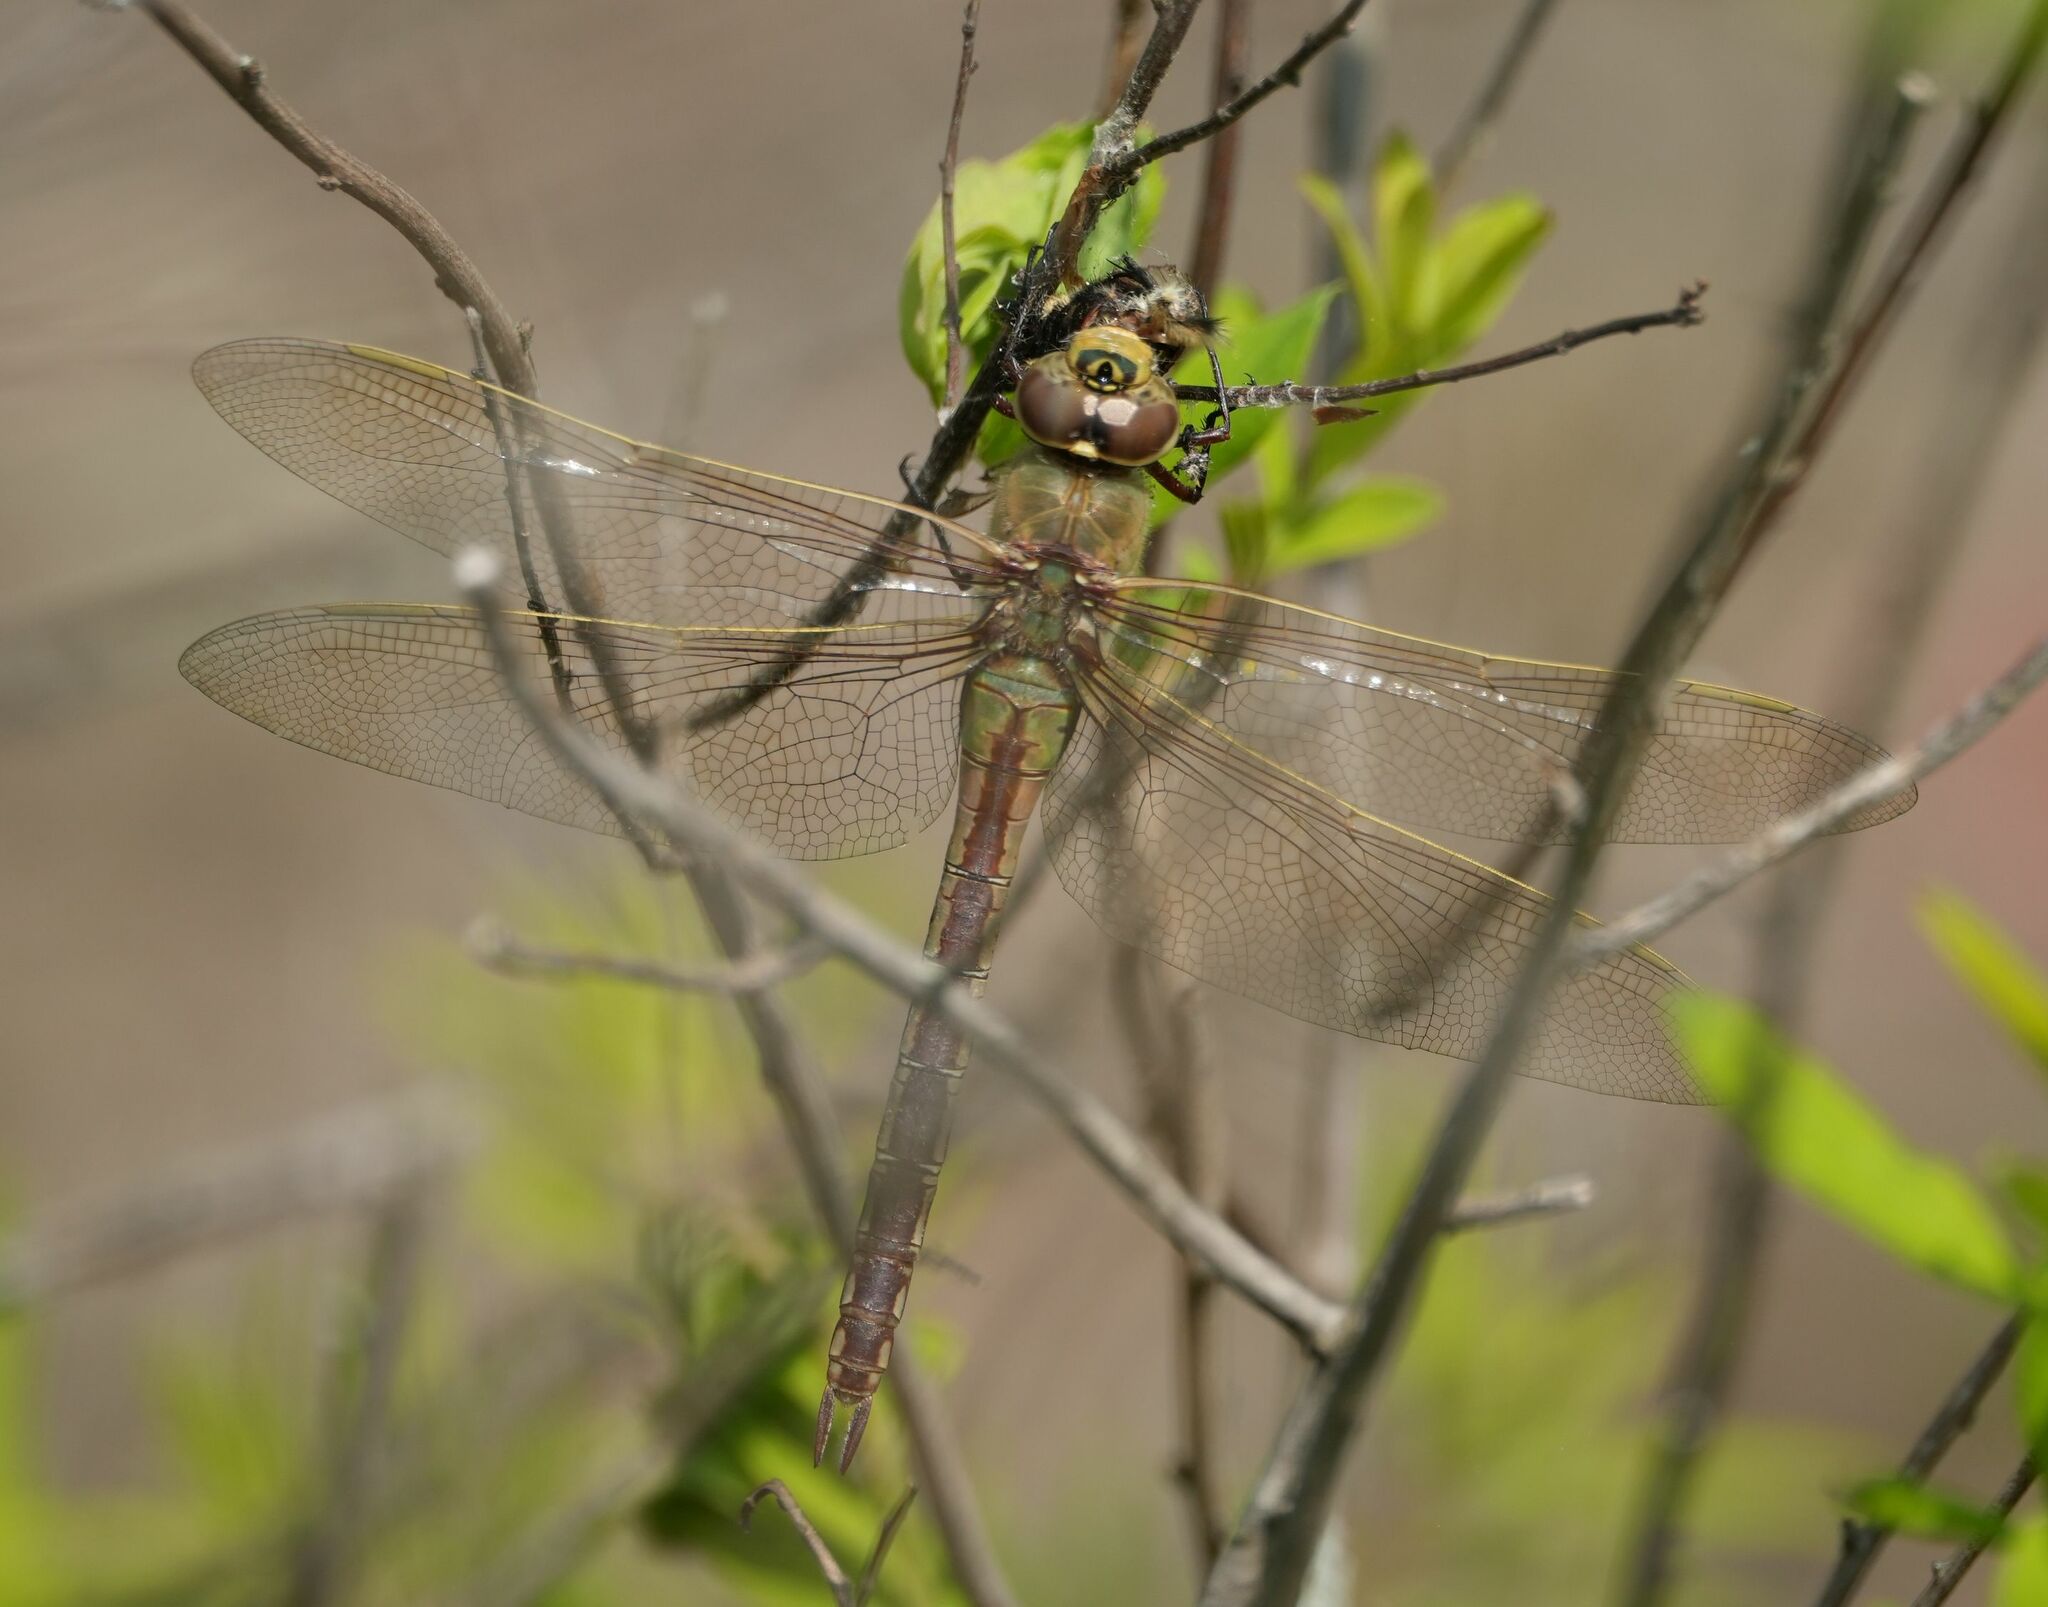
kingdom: Animalia
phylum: Arthropoda
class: Insecta
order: Odonata
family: Aeshnidae
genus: Anax
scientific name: Anax junius
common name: Common green darner
